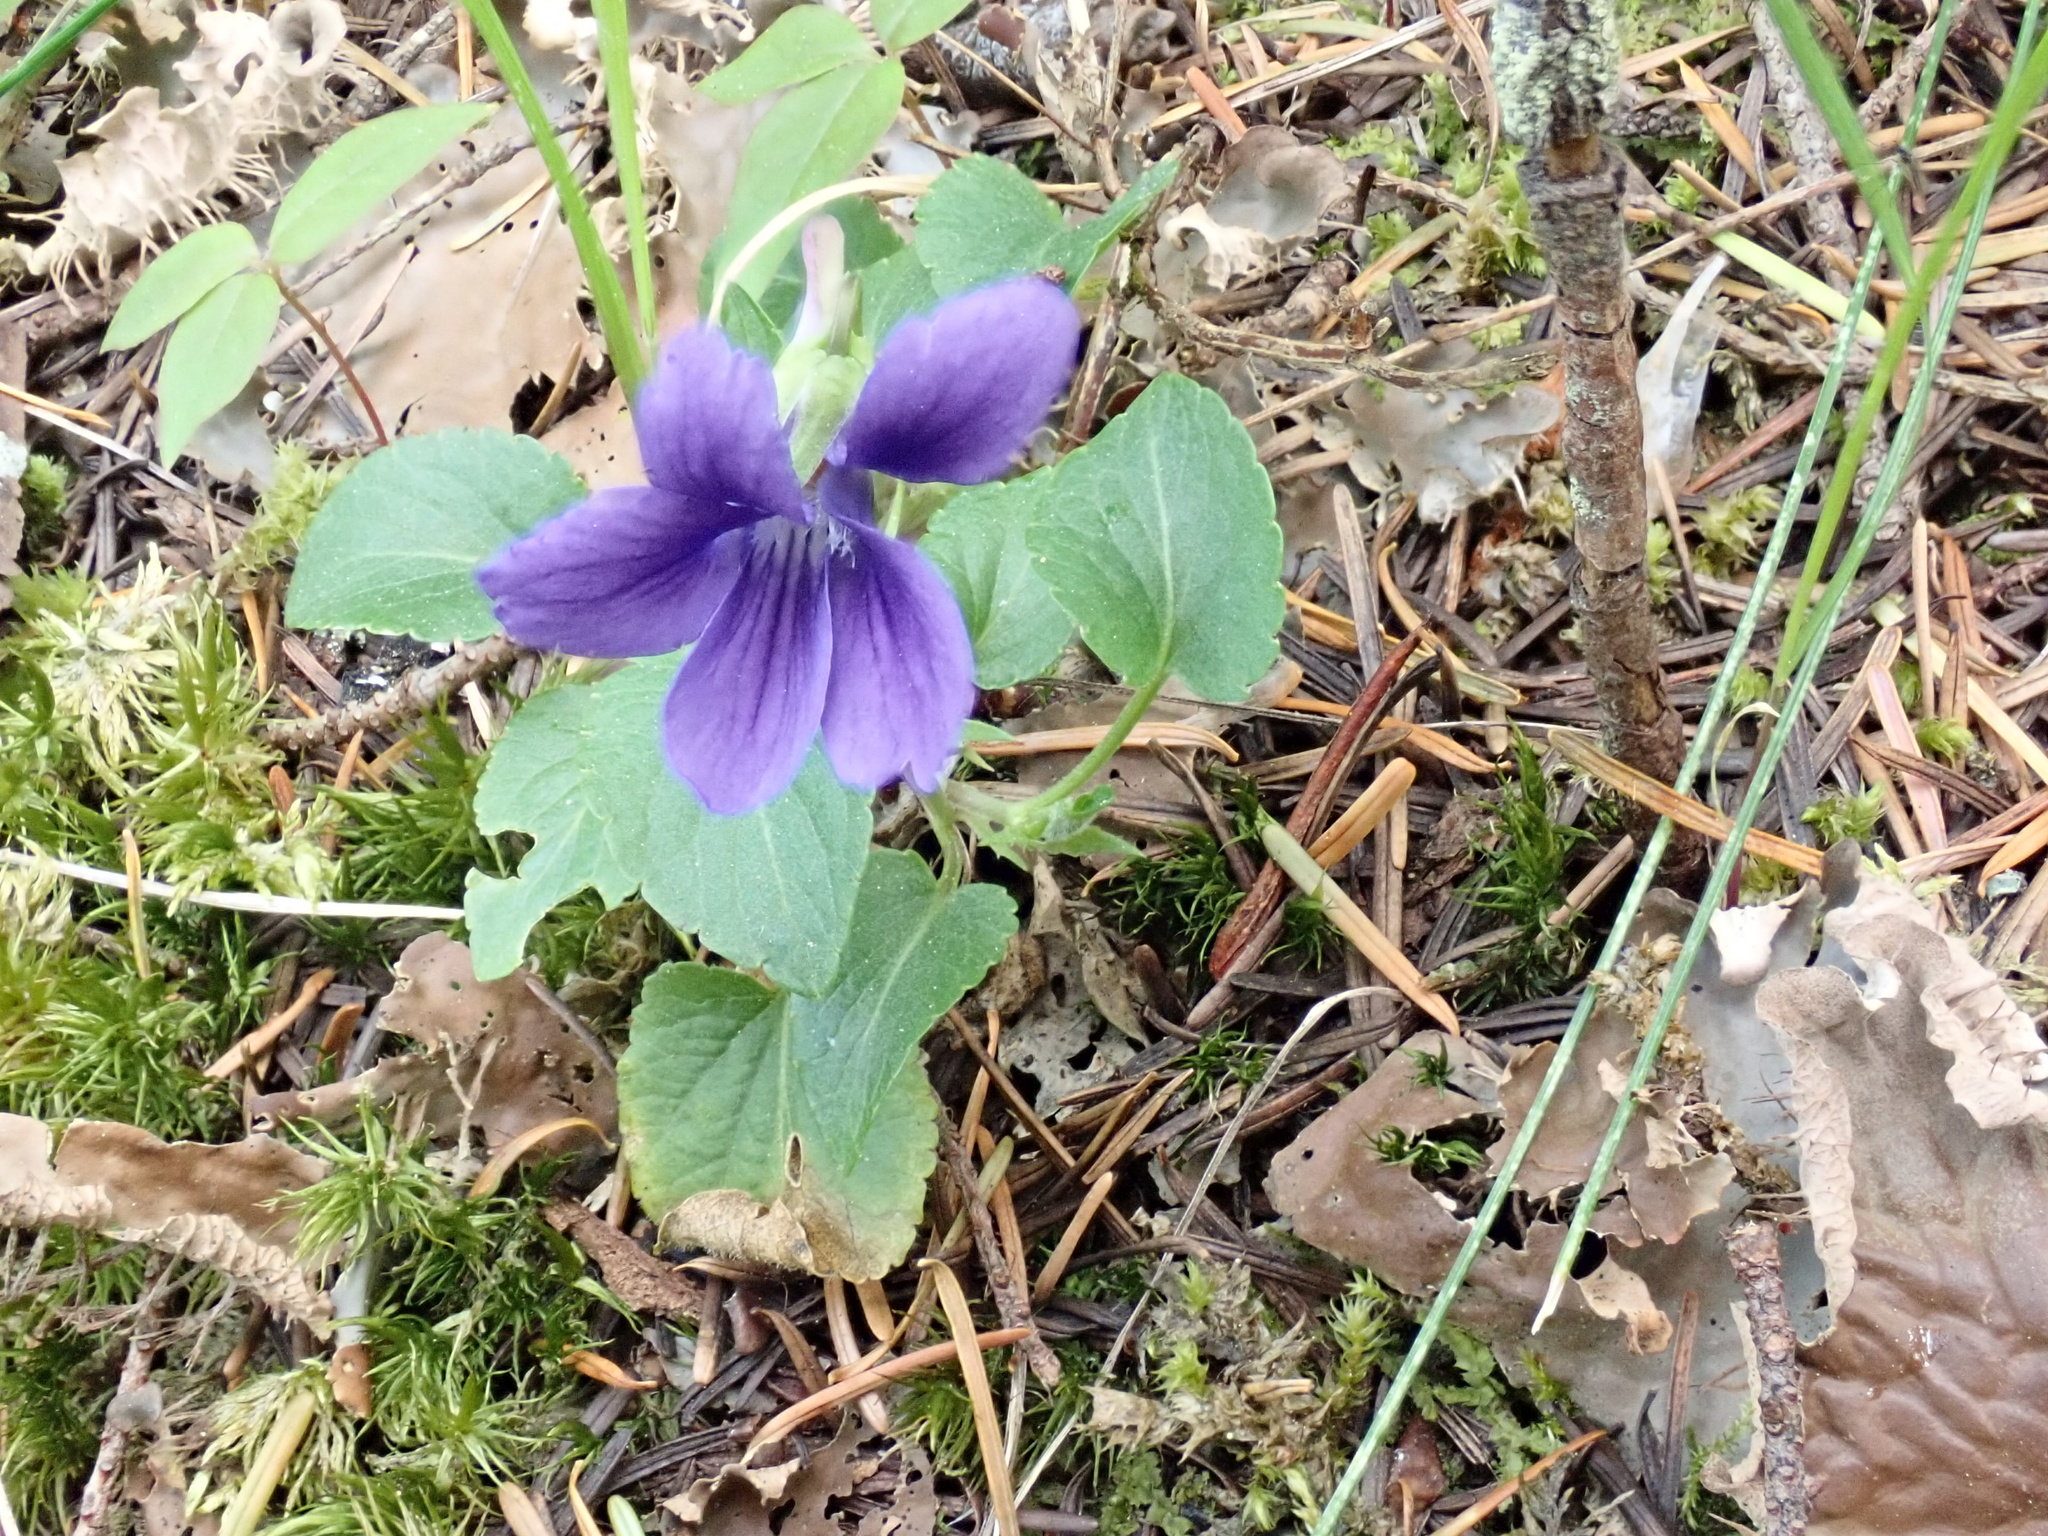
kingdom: Plantae
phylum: Tracheophyta
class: Magnoliopsida
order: Malpighiales
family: Violaceae
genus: Viola
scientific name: Viola adunca
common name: Sand violet
